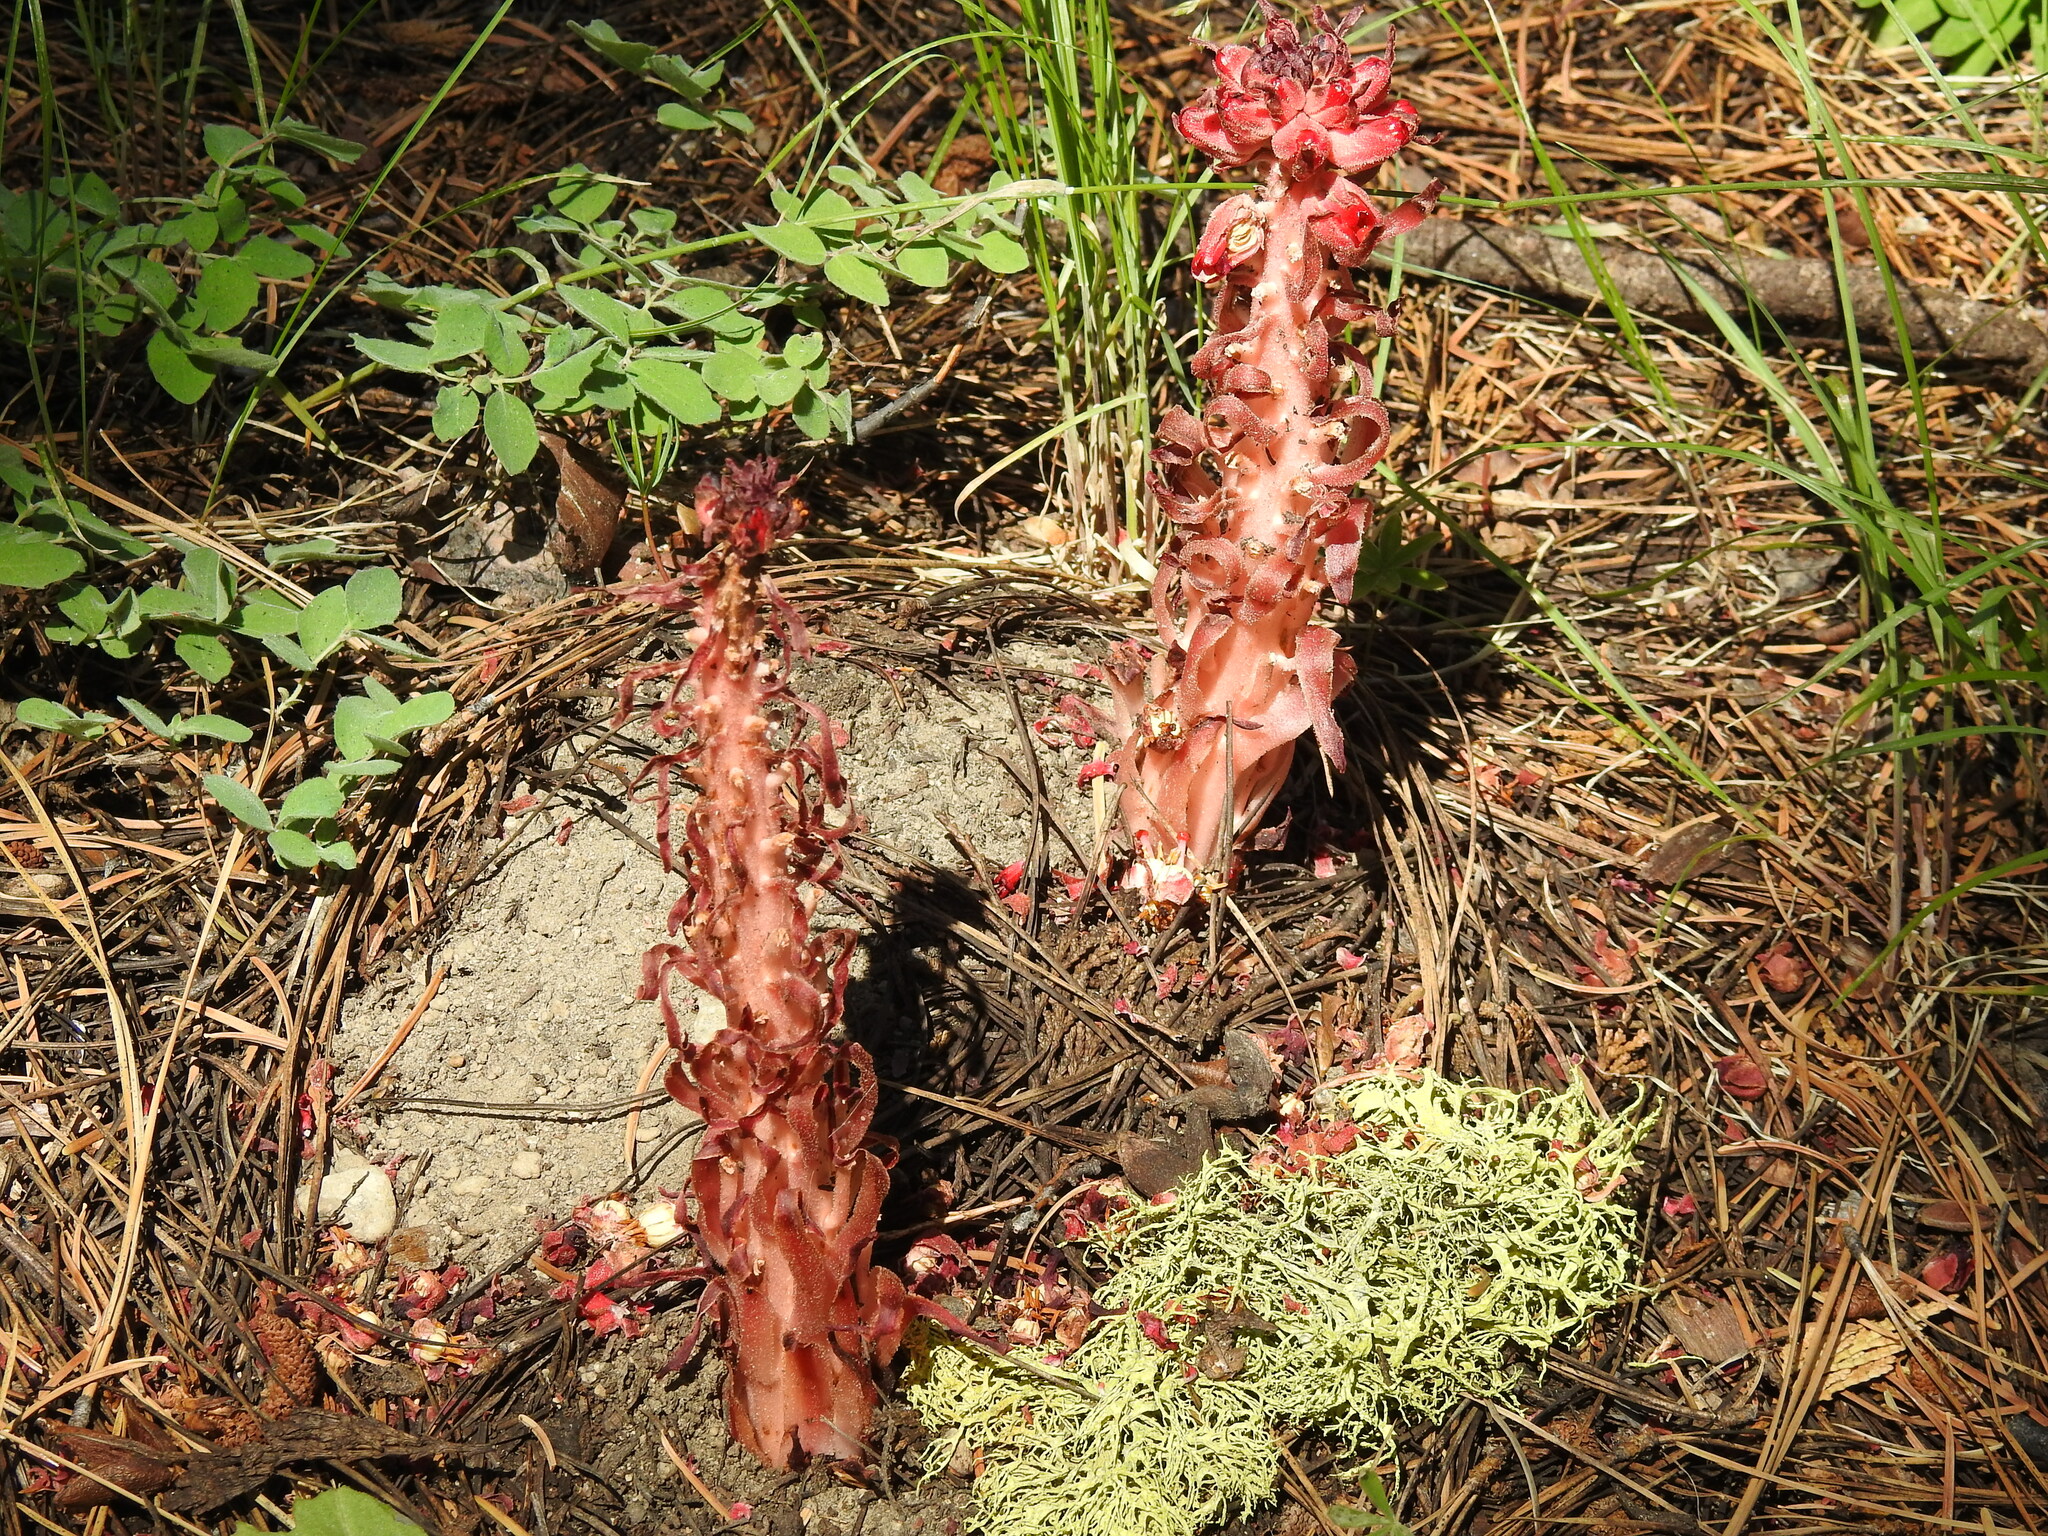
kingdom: Plantae
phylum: Tracheophyta
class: Magnoliopsida
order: Ericales
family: Ericaceae
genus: Sarcodes
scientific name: Sarcodes sanguinea
